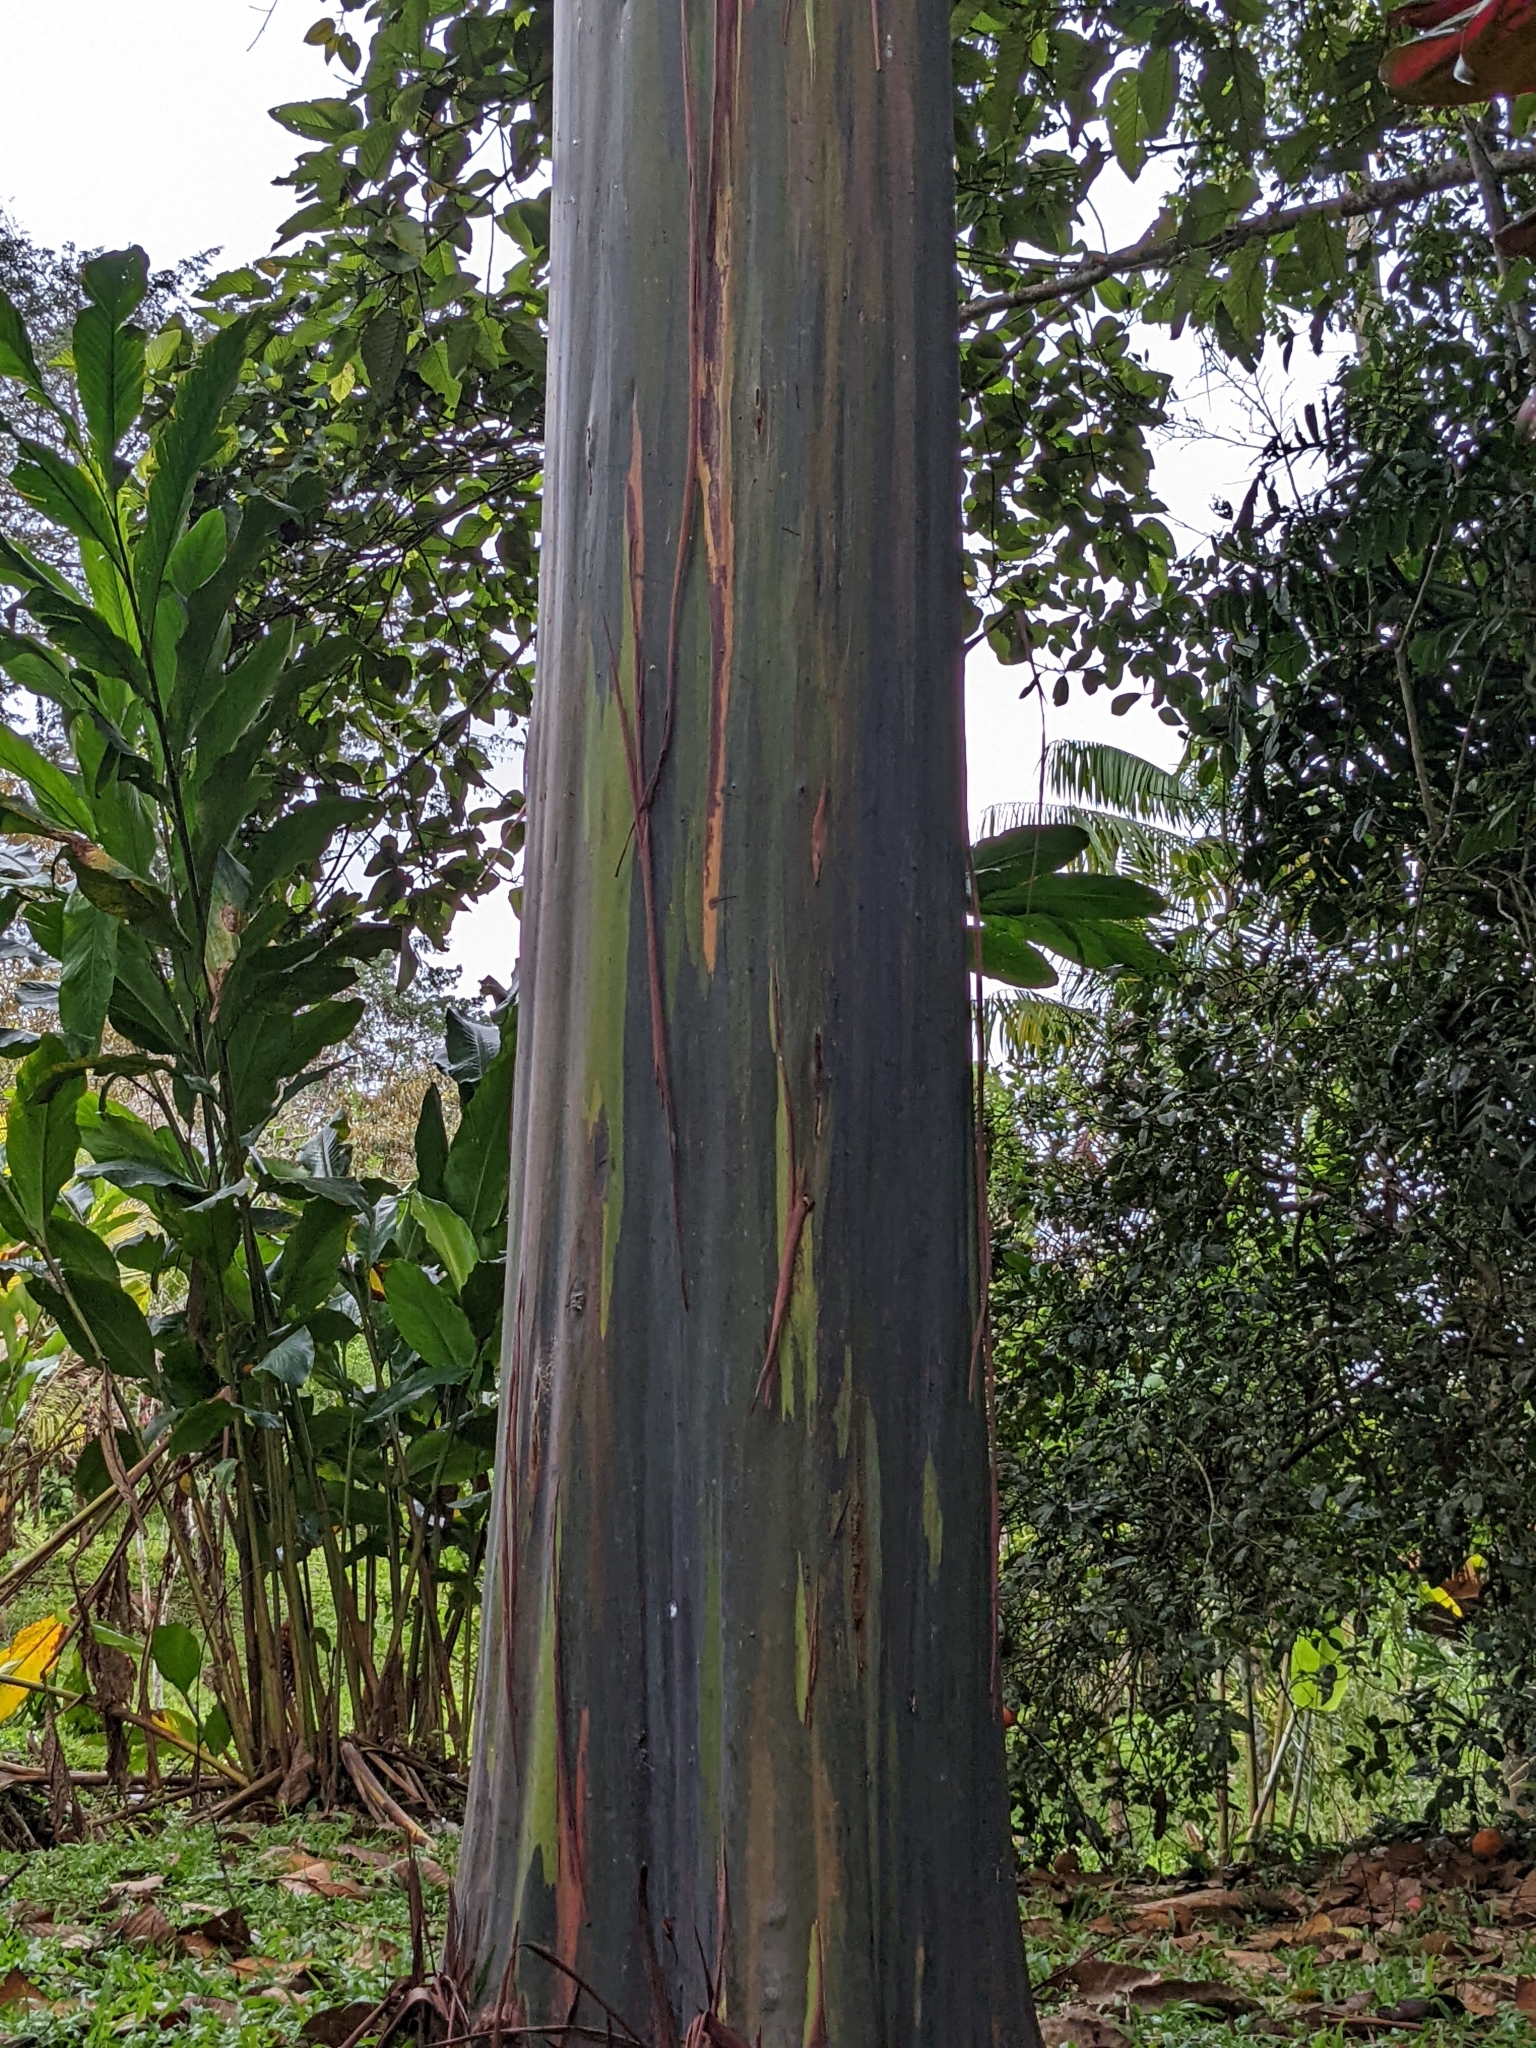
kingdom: Plantae
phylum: Tracheophyta
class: Magnoliopsida
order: Myrtales
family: Myrtaceae
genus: Eucalyptus
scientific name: Eucalyptus deglupta
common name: Mindanao gum
